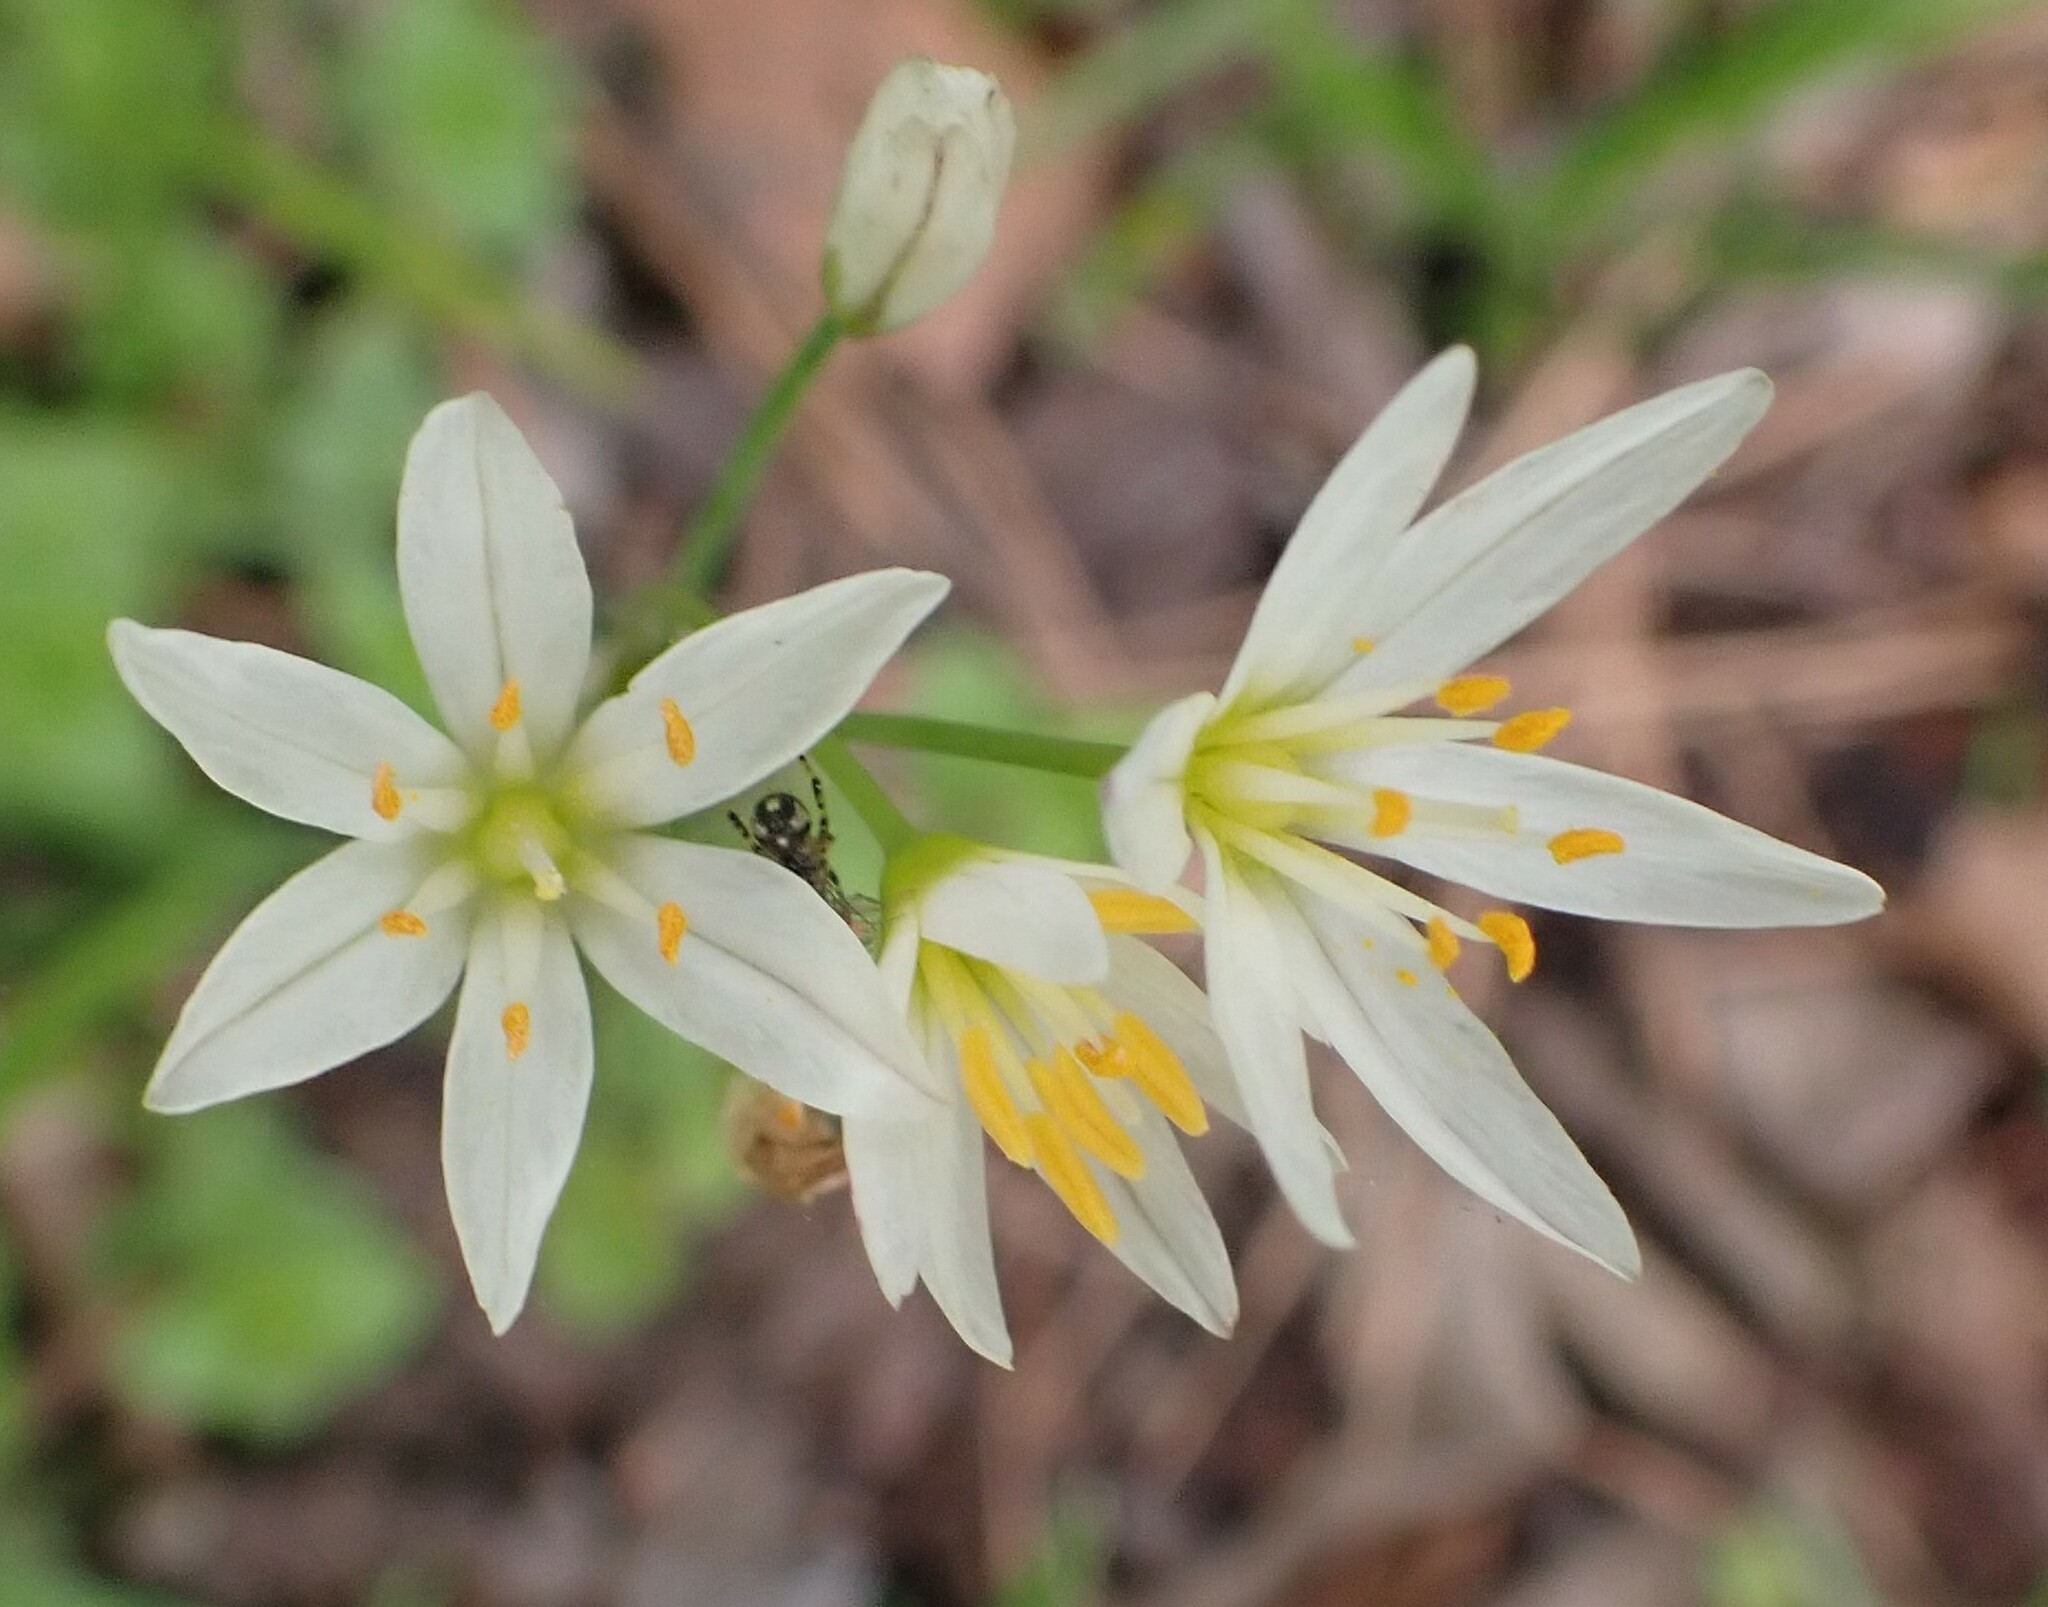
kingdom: Plantae
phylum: Tracheophyta
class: Liliopsida
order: Asparagales
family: Amaryllidaceae
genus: Nothoscordum
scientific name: Nothoscordum bivalve
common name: Crow-poison
